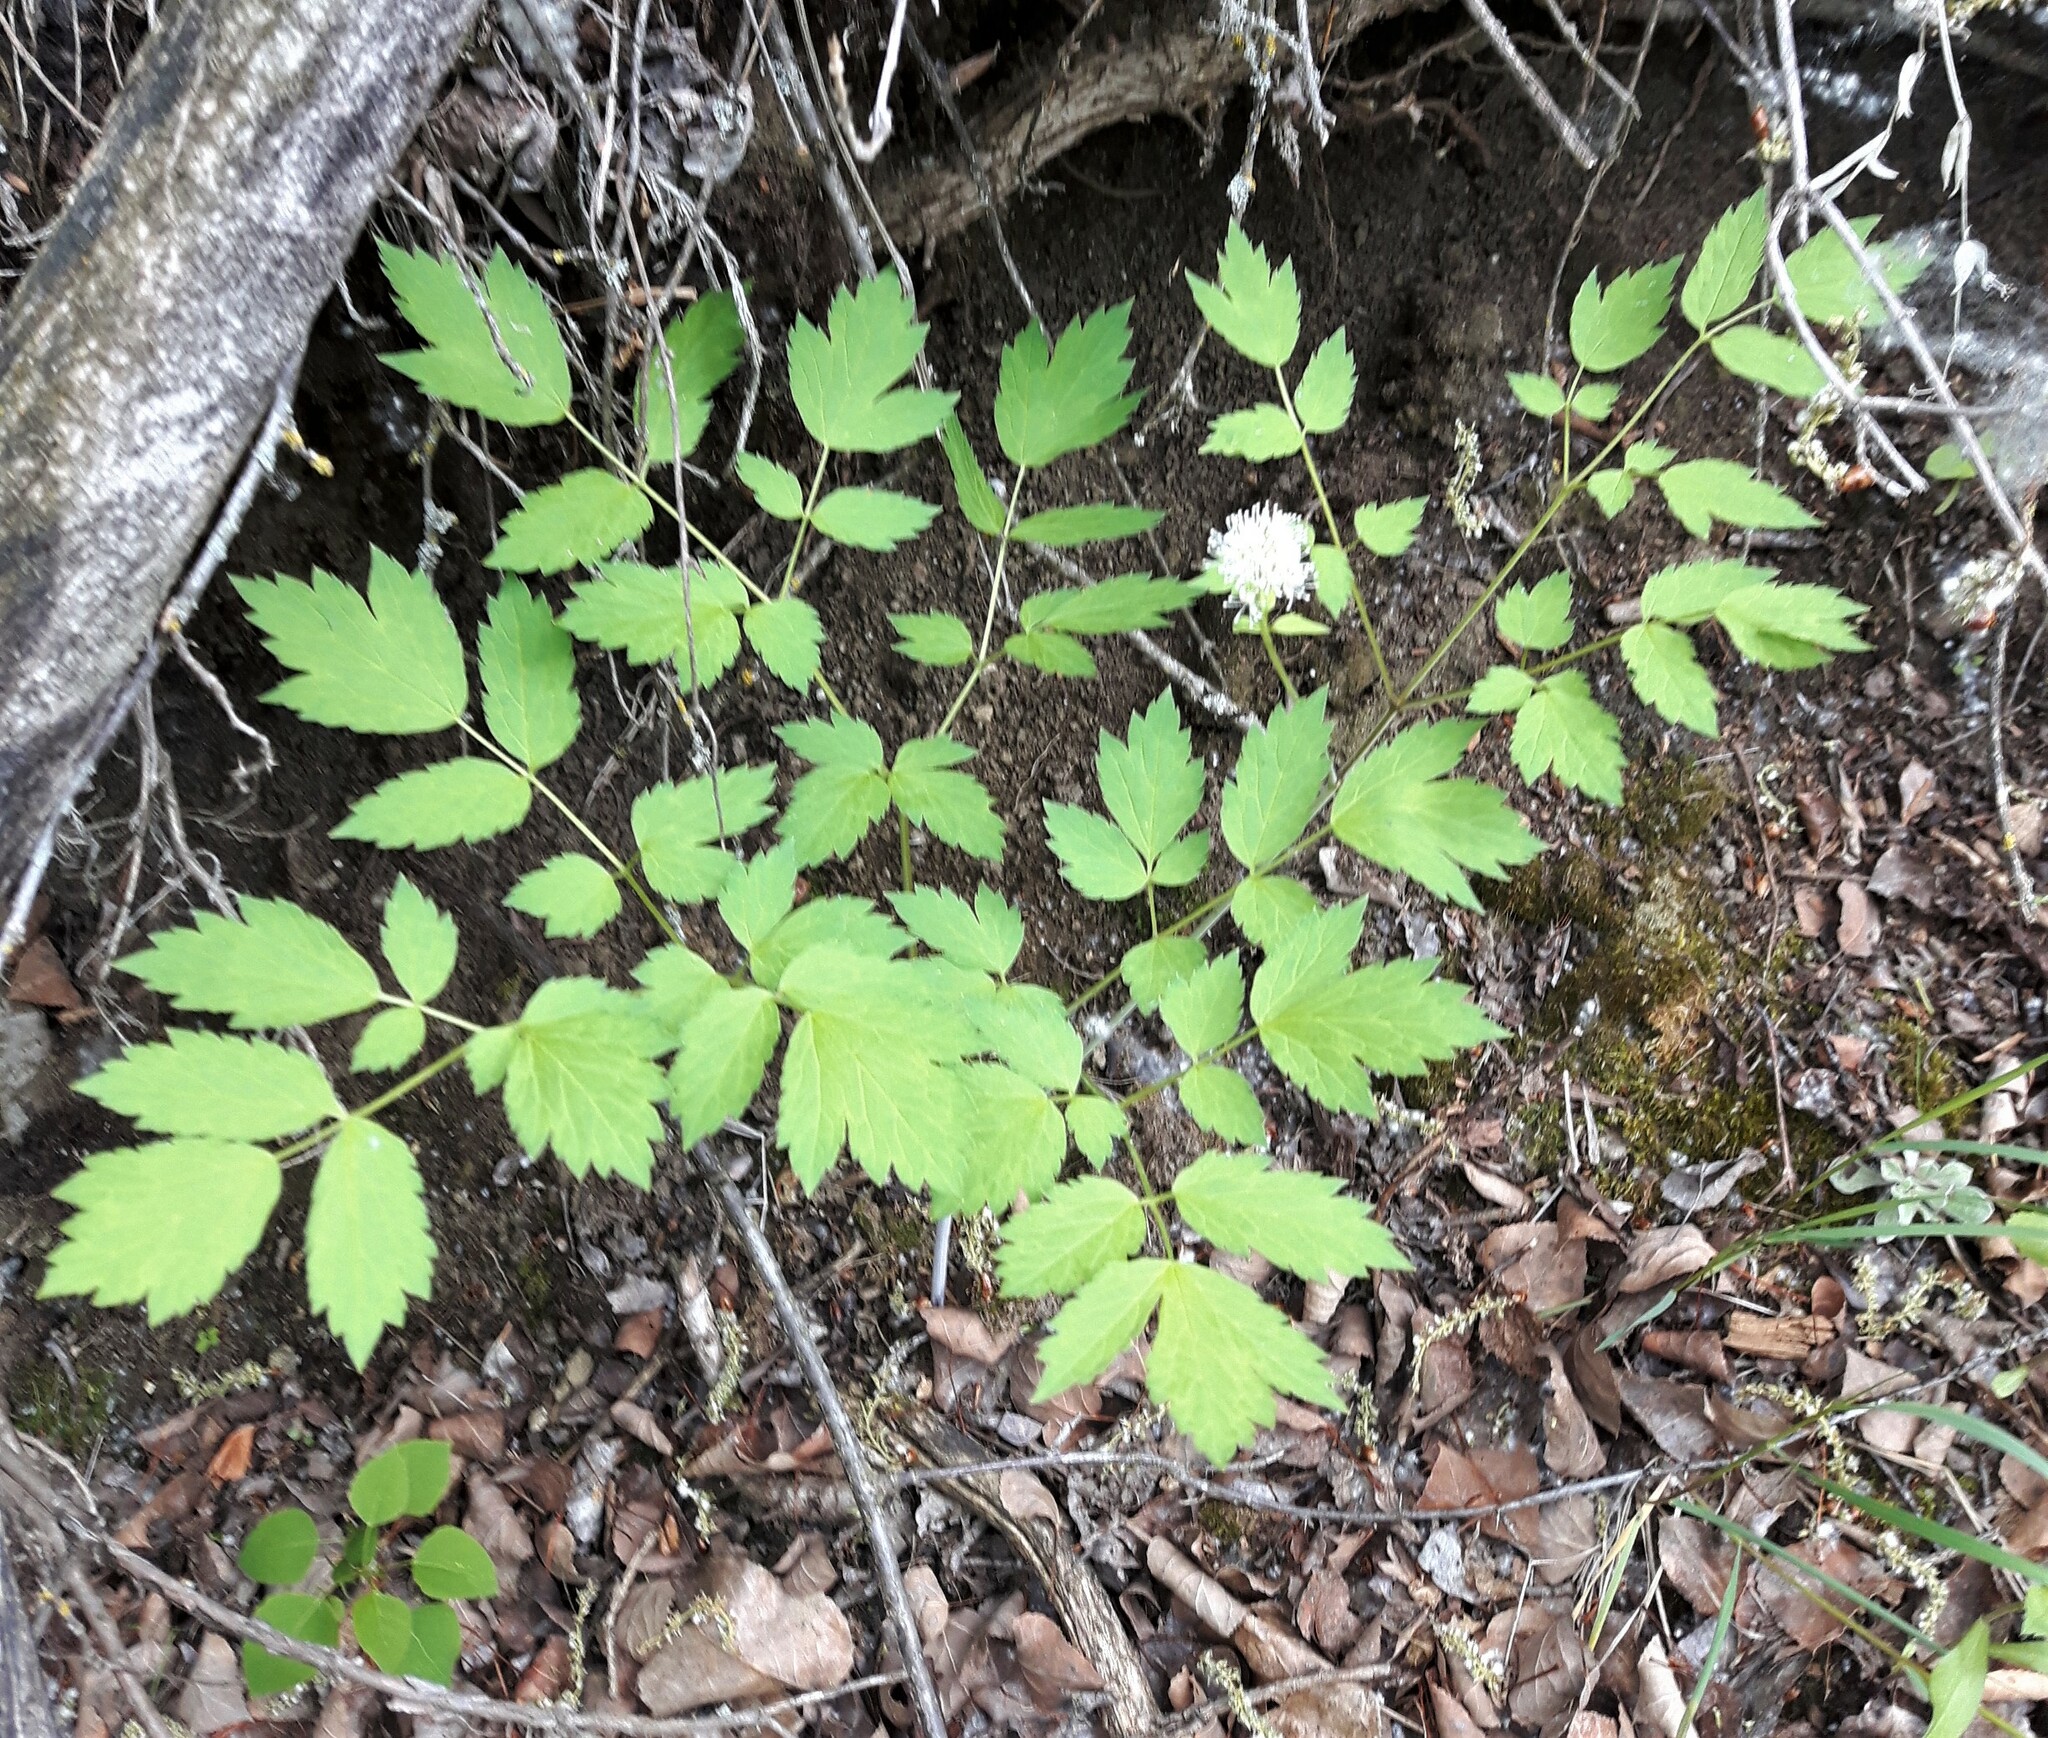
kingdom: Plantae
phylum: Tracheophyta
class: Magnoliopsida
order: Ranunculales
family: Ranunculaceae
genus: Actaea
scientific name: Actaea rubra
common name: Red baneberry
